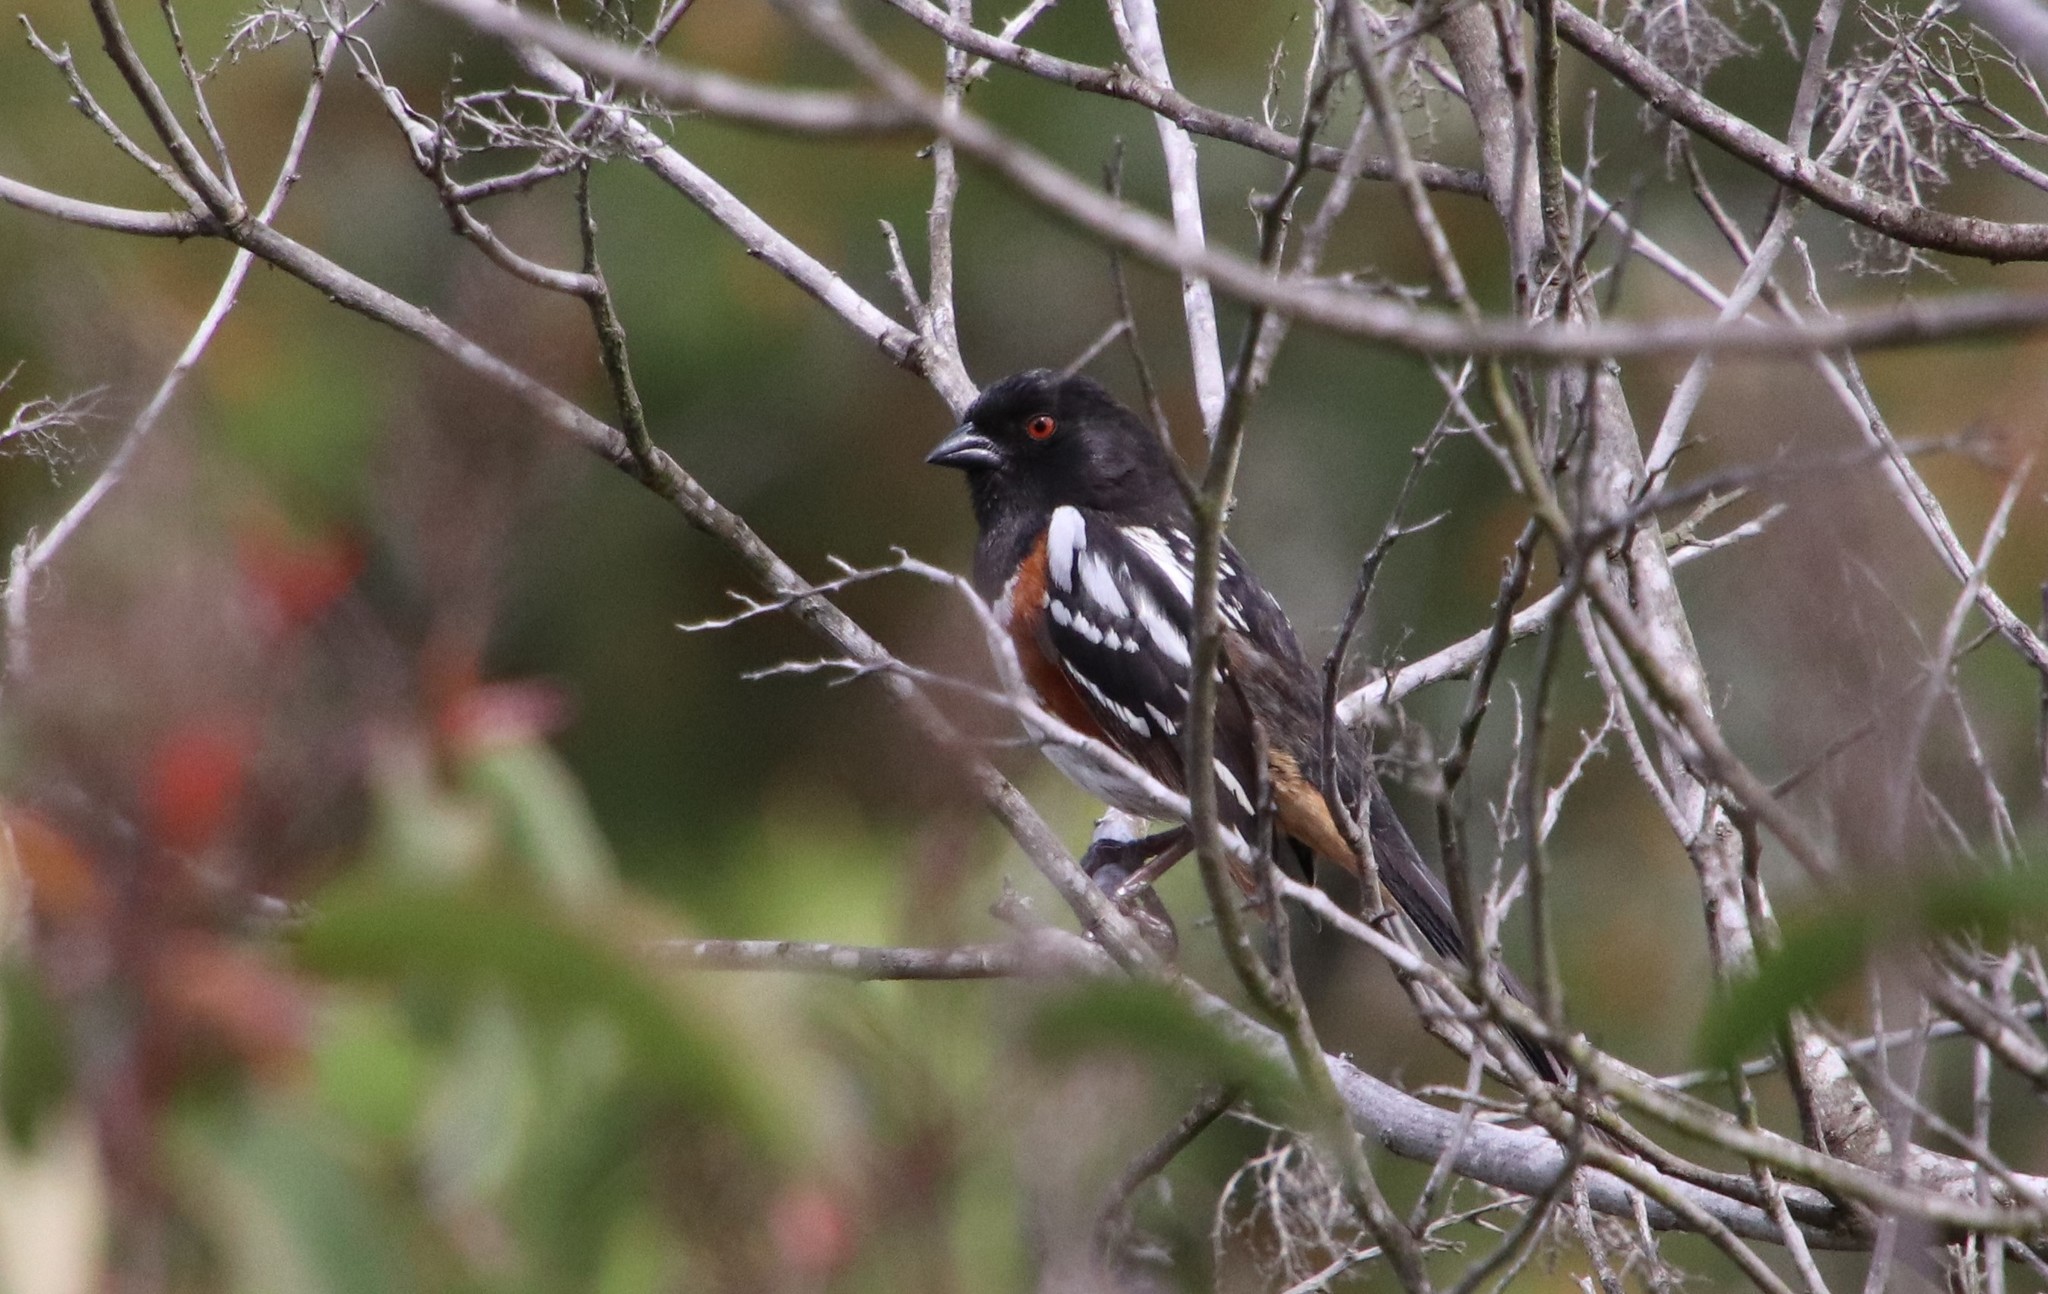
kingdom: Animalia
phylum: Chordata
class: Aves
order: Passeriformes
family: Passerellidae
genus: Pipilo
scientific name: Pipilo maculatus
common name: Spotted towhee
